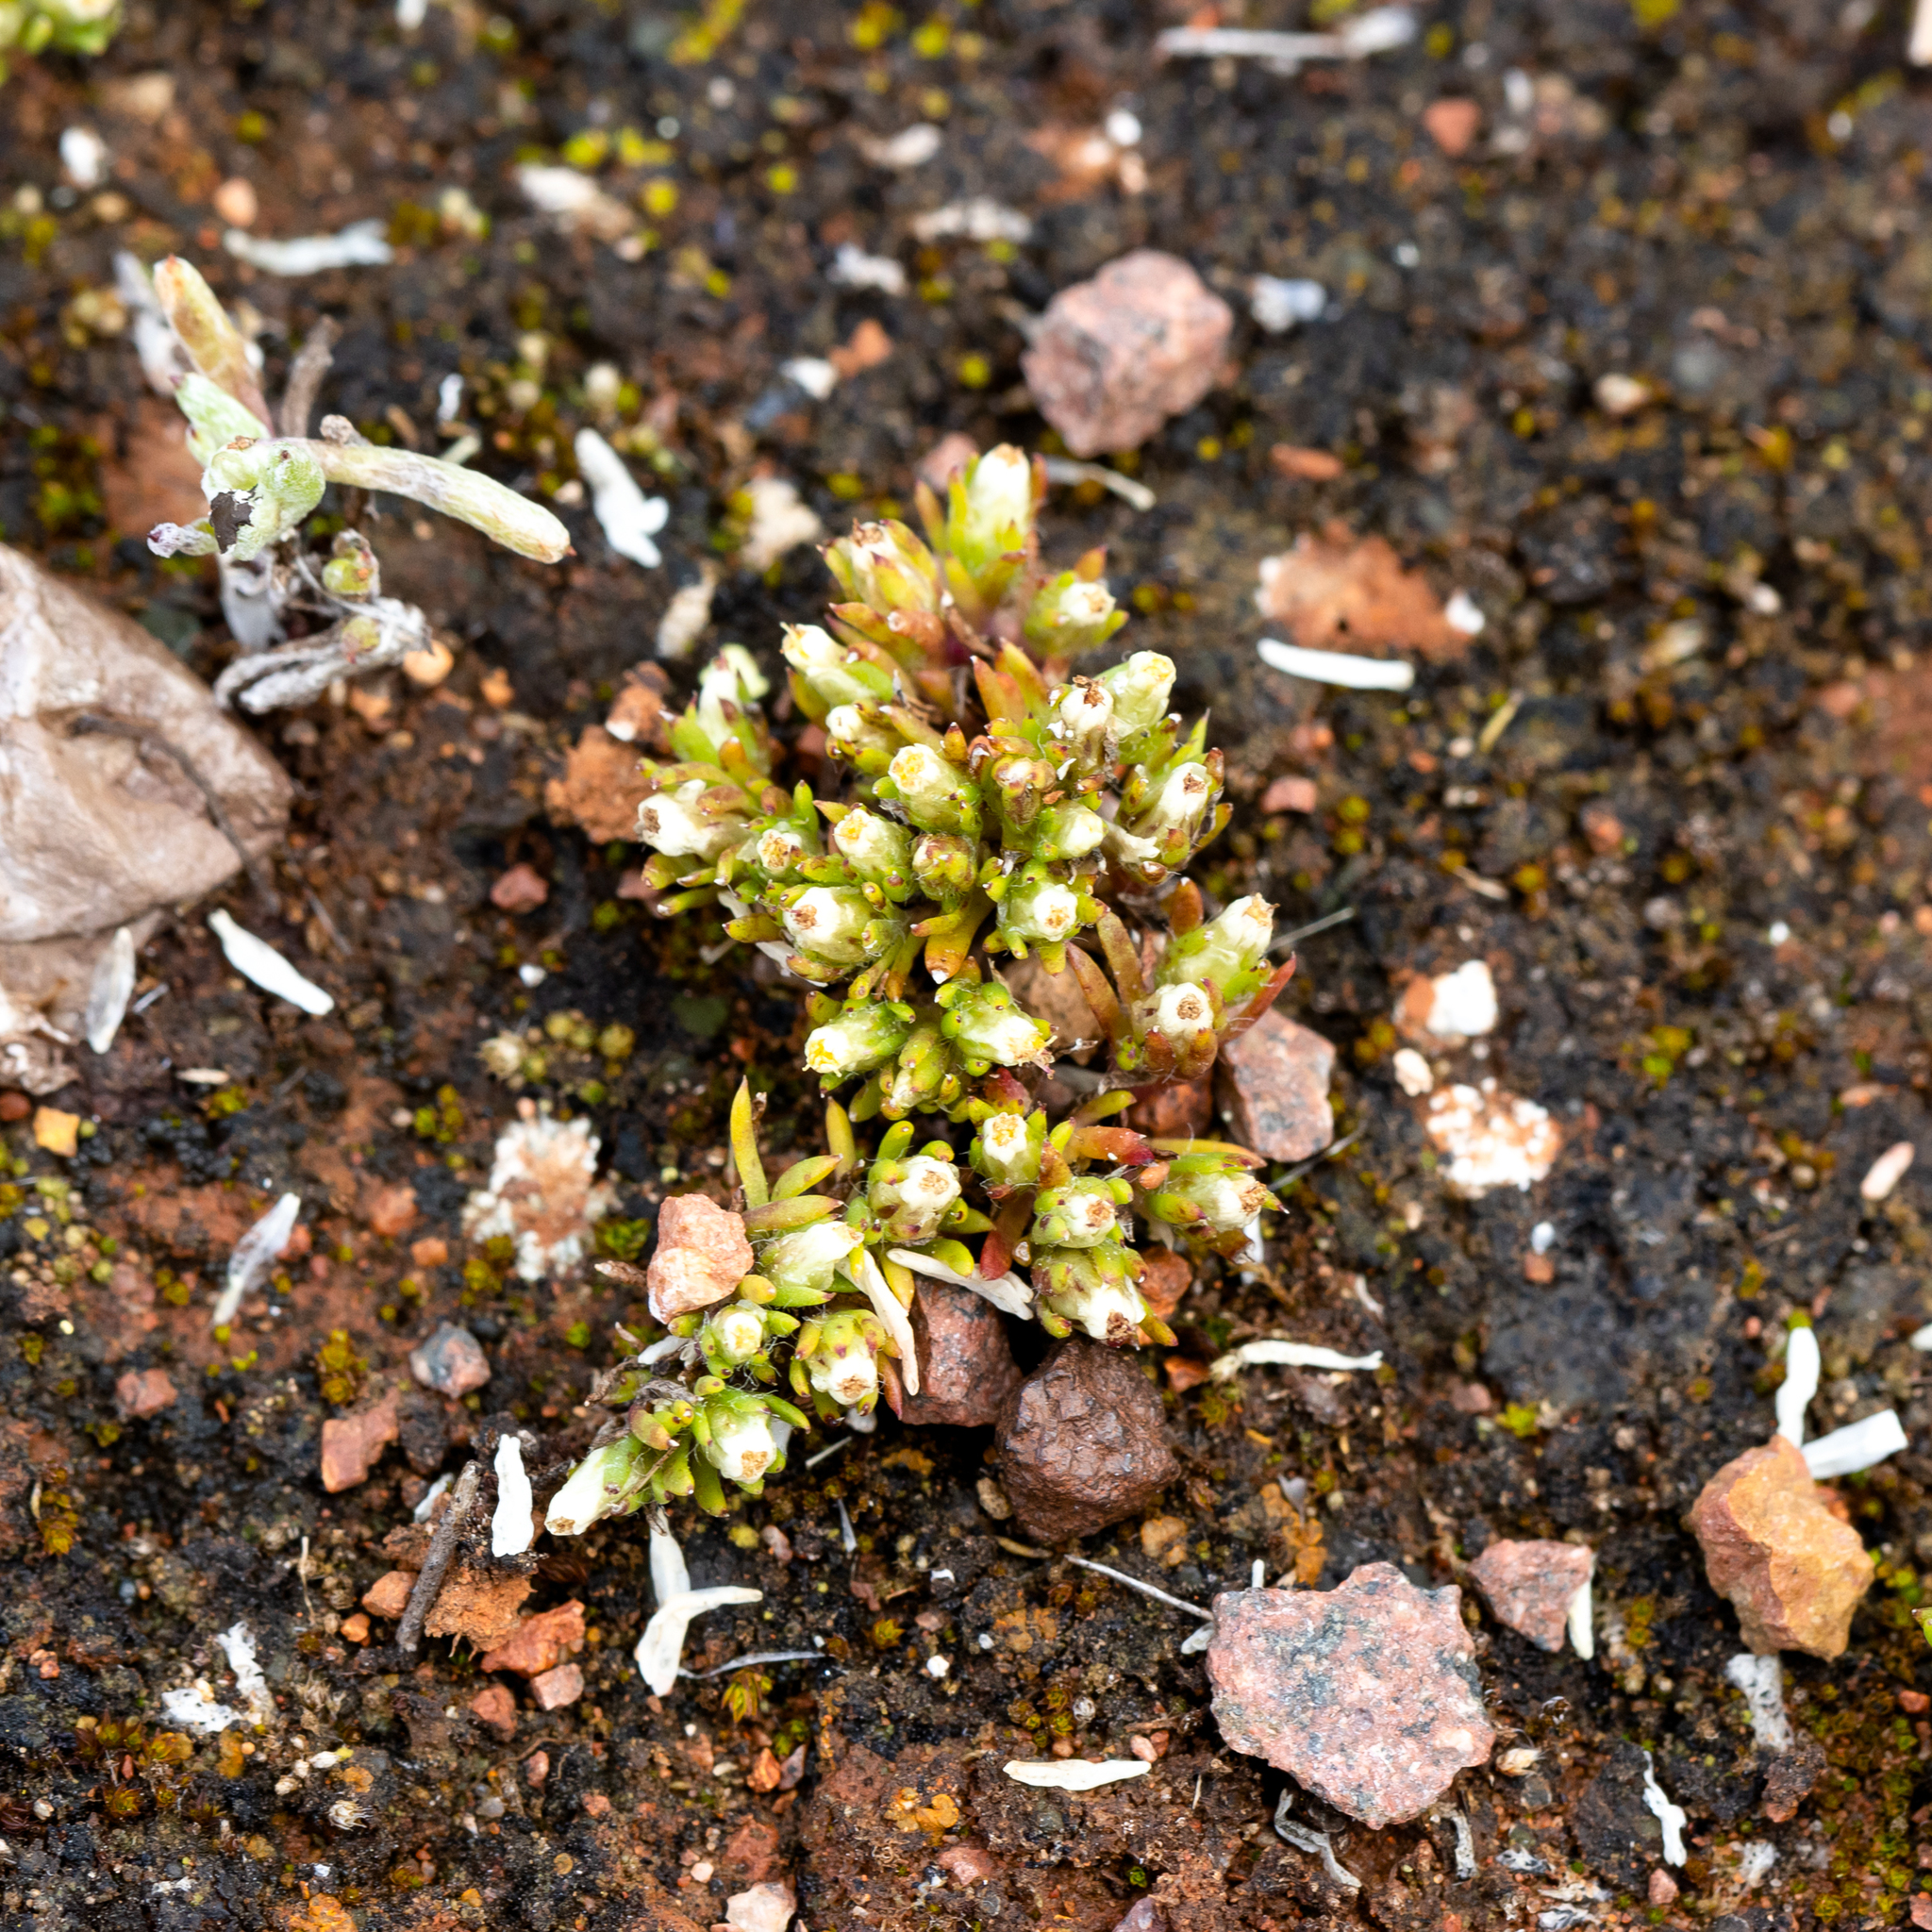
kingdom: Plantae
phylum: Tracheophyta
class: Magnoliopsida
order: Asterales
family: Asteraceae
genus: Hyalosperma
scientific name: Hyalosperma demissum
